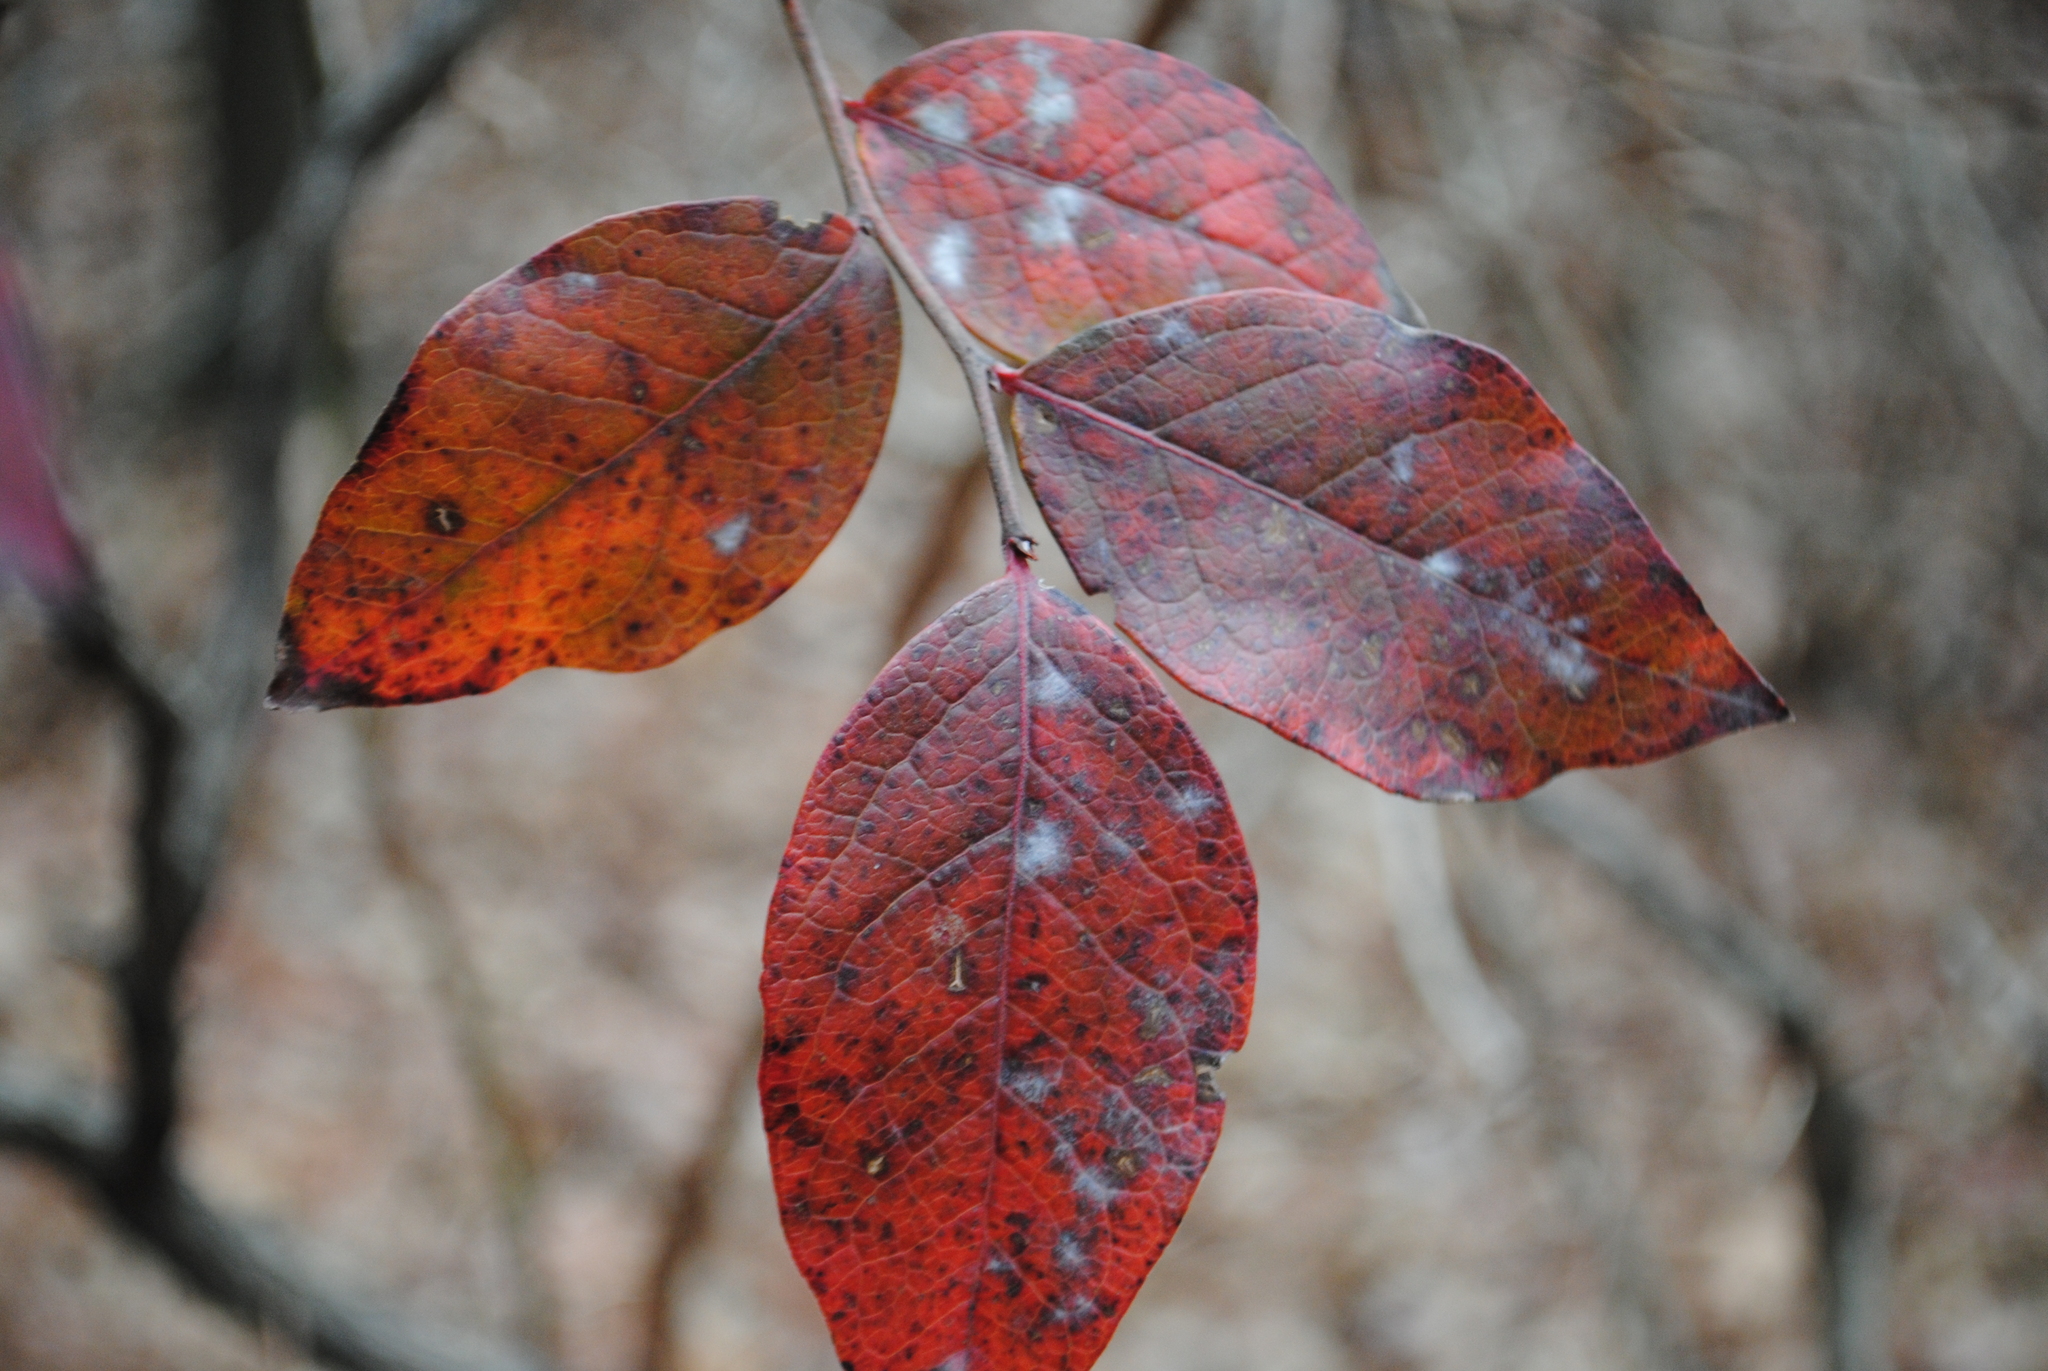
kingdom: Fungi
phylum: Ascomycota
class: Leotiomycetes
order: Helotiales
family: Erysiphaceae
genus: Erysiphe
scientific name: Erysiphe penicillata
